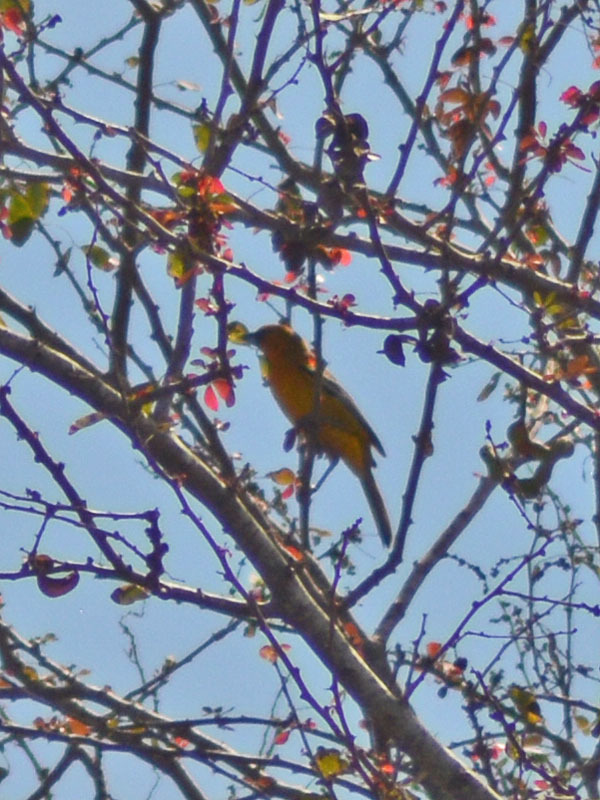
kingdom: Animalia
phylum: Chordata
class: Aves
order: Passeriformes
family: Icteridae
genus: Icterus
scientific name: Icterus pustulatus
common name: Streak-backed oriole
